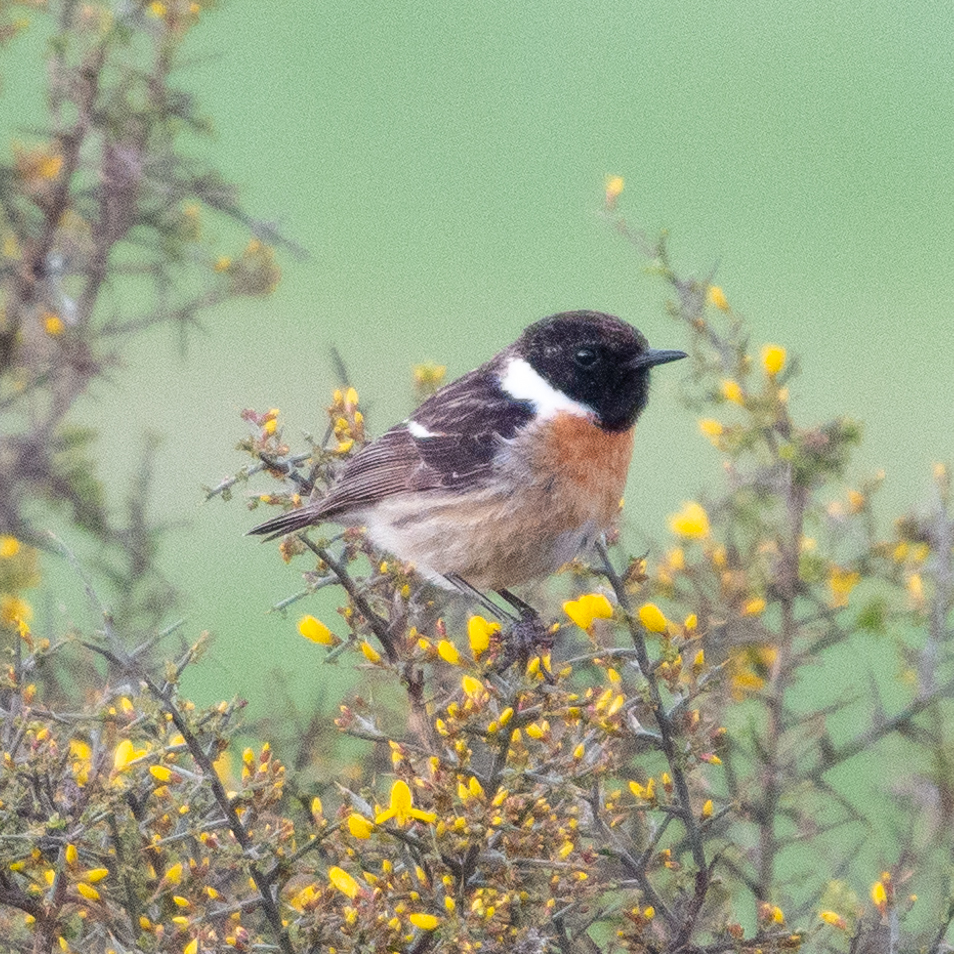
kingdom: Animalia
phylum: Chordata
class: Aves
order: Passeriformes
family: Muscicapidae
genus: Saxicola
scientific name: Saxicola rubicola
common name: European stonechat
